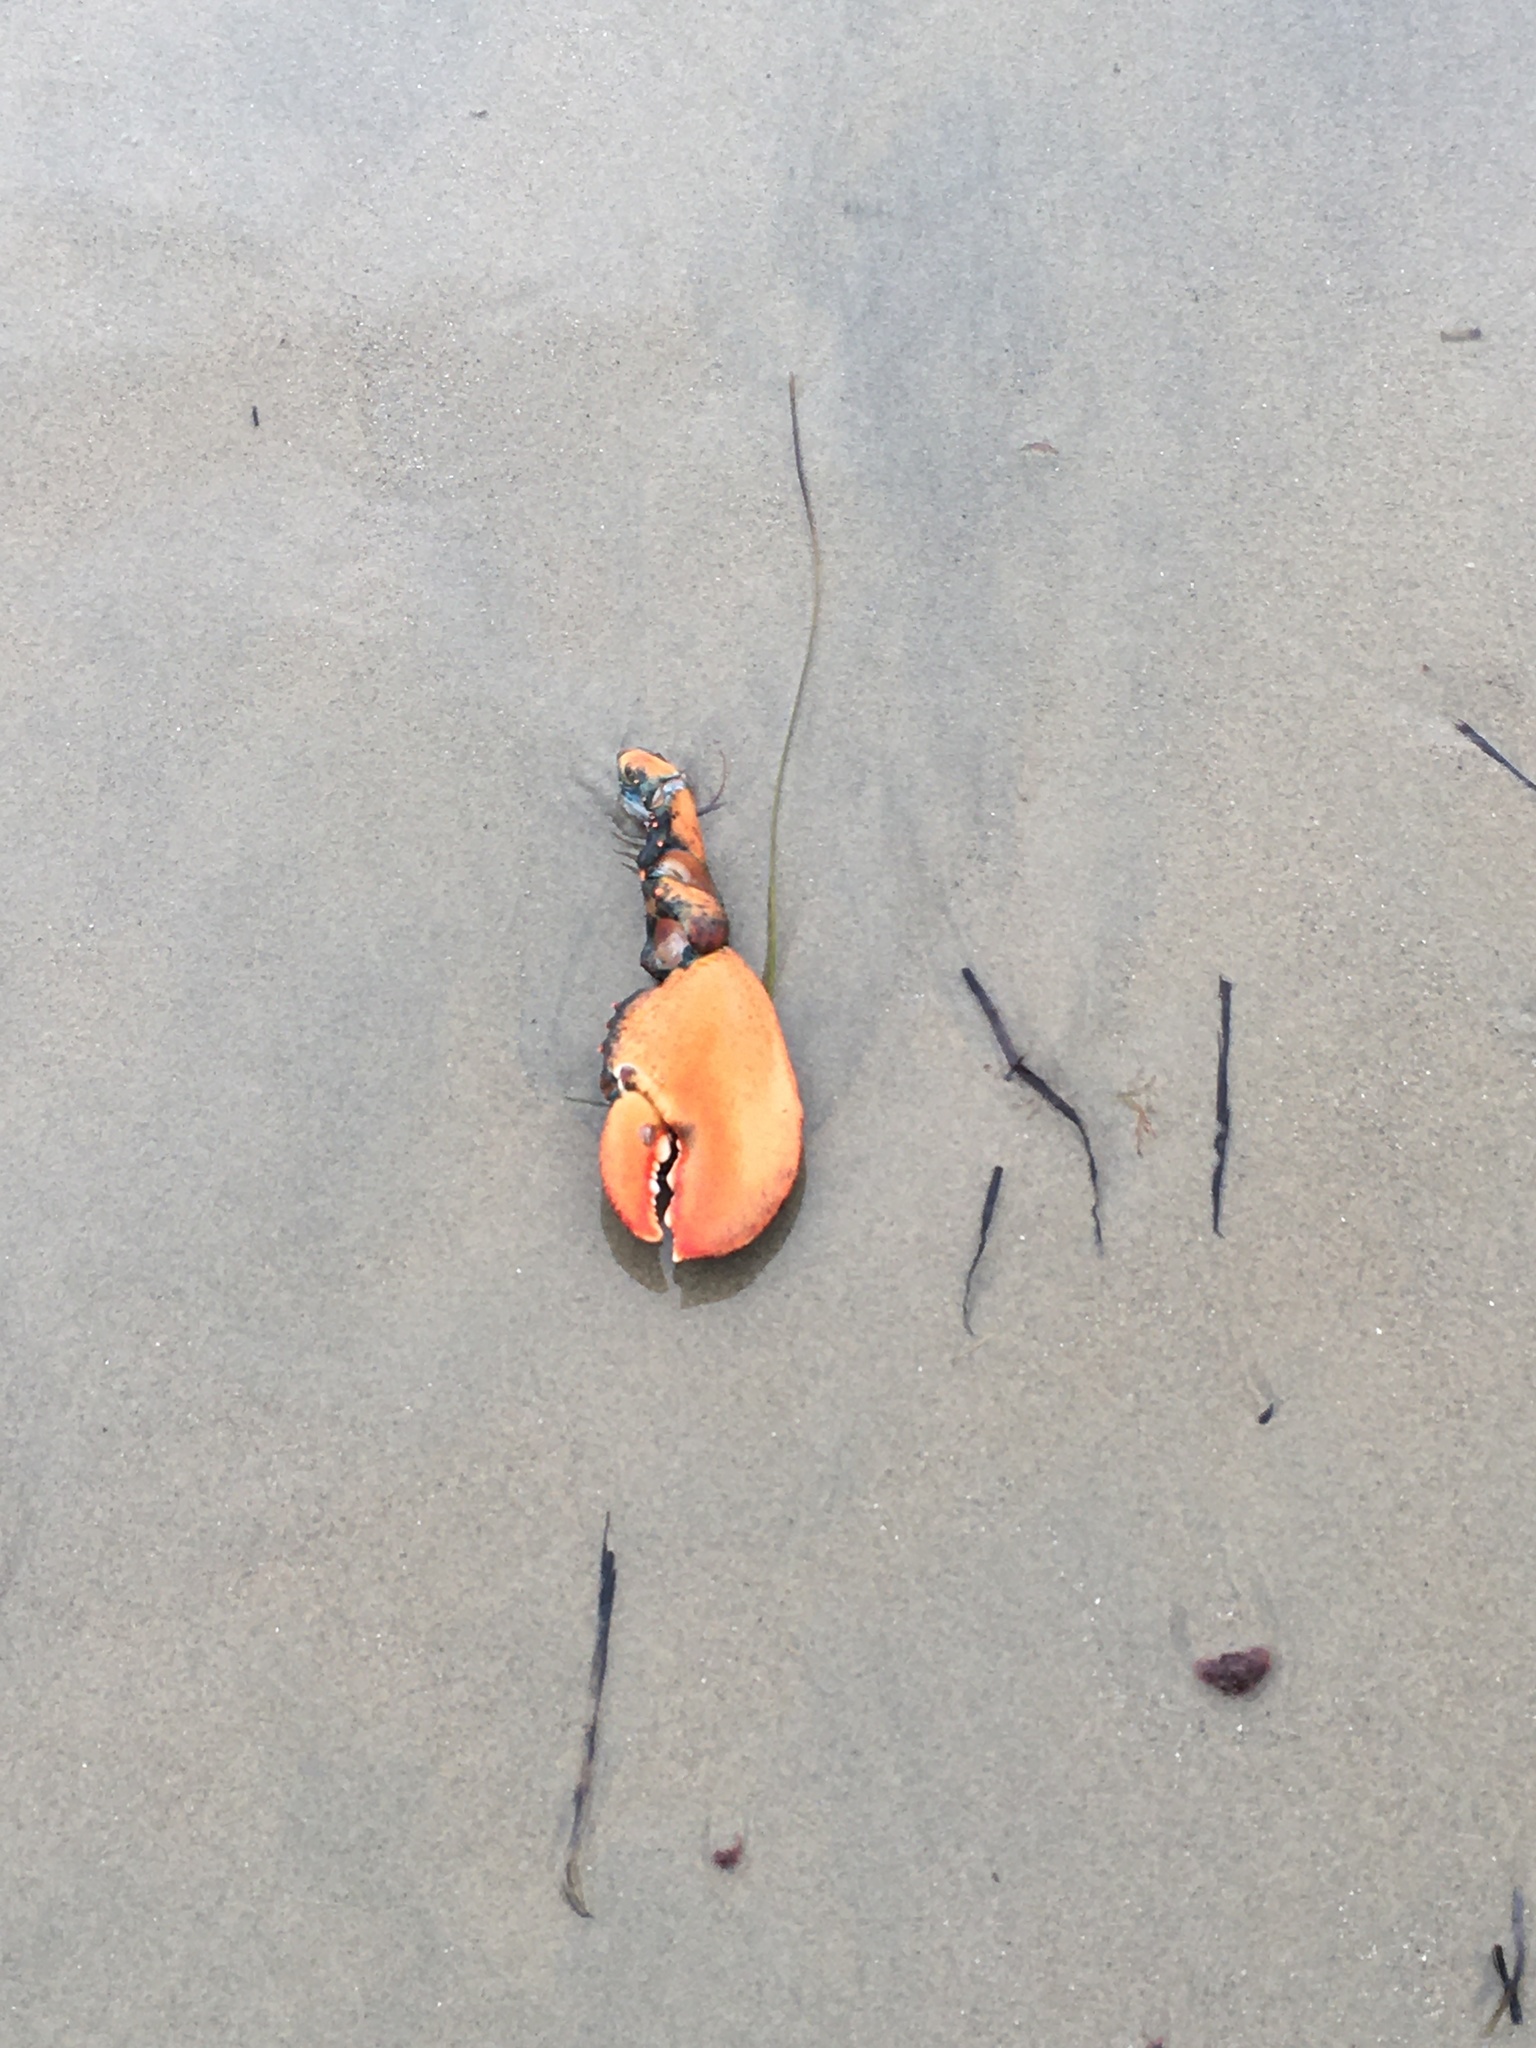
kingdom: Animalia
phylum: Arthropoda
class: Malacostraca
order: Decapoda
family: Nephropidae
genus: Homarus
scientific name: Homarus americanus
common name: American lobster
